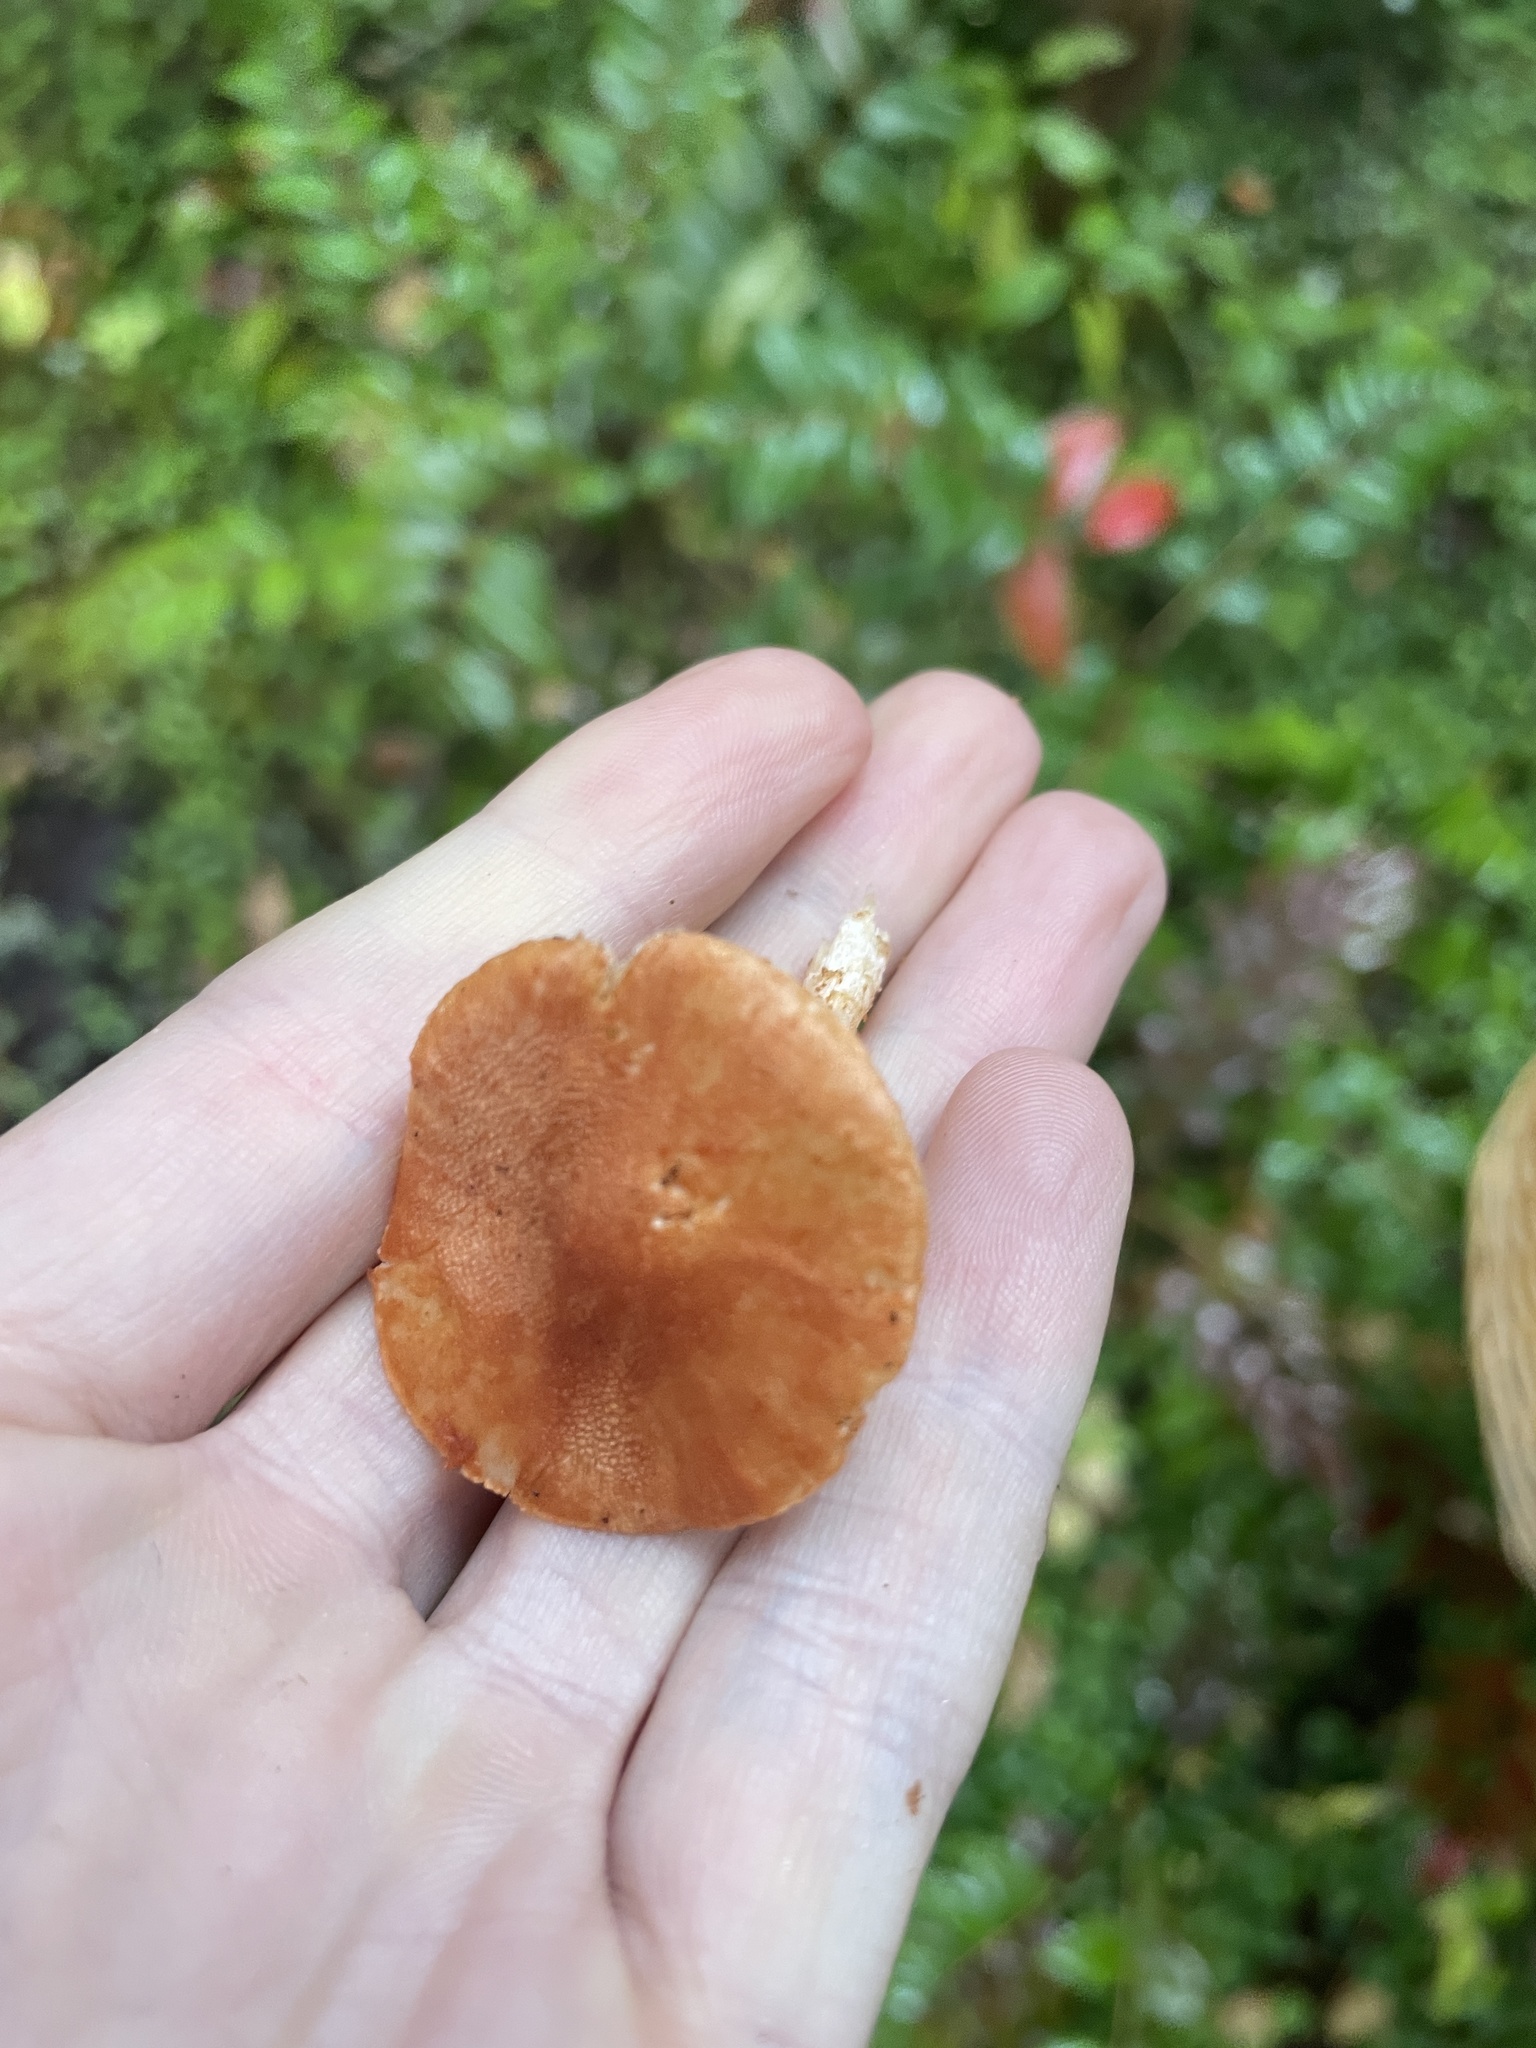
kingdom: Fungi
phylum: Basidiomycota
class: Agaricomycetes
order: Agaricales
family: Agaricaceae
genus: Cystodermella
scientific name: Cystodermella cinnabarina
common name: Cinnabar powdercap
